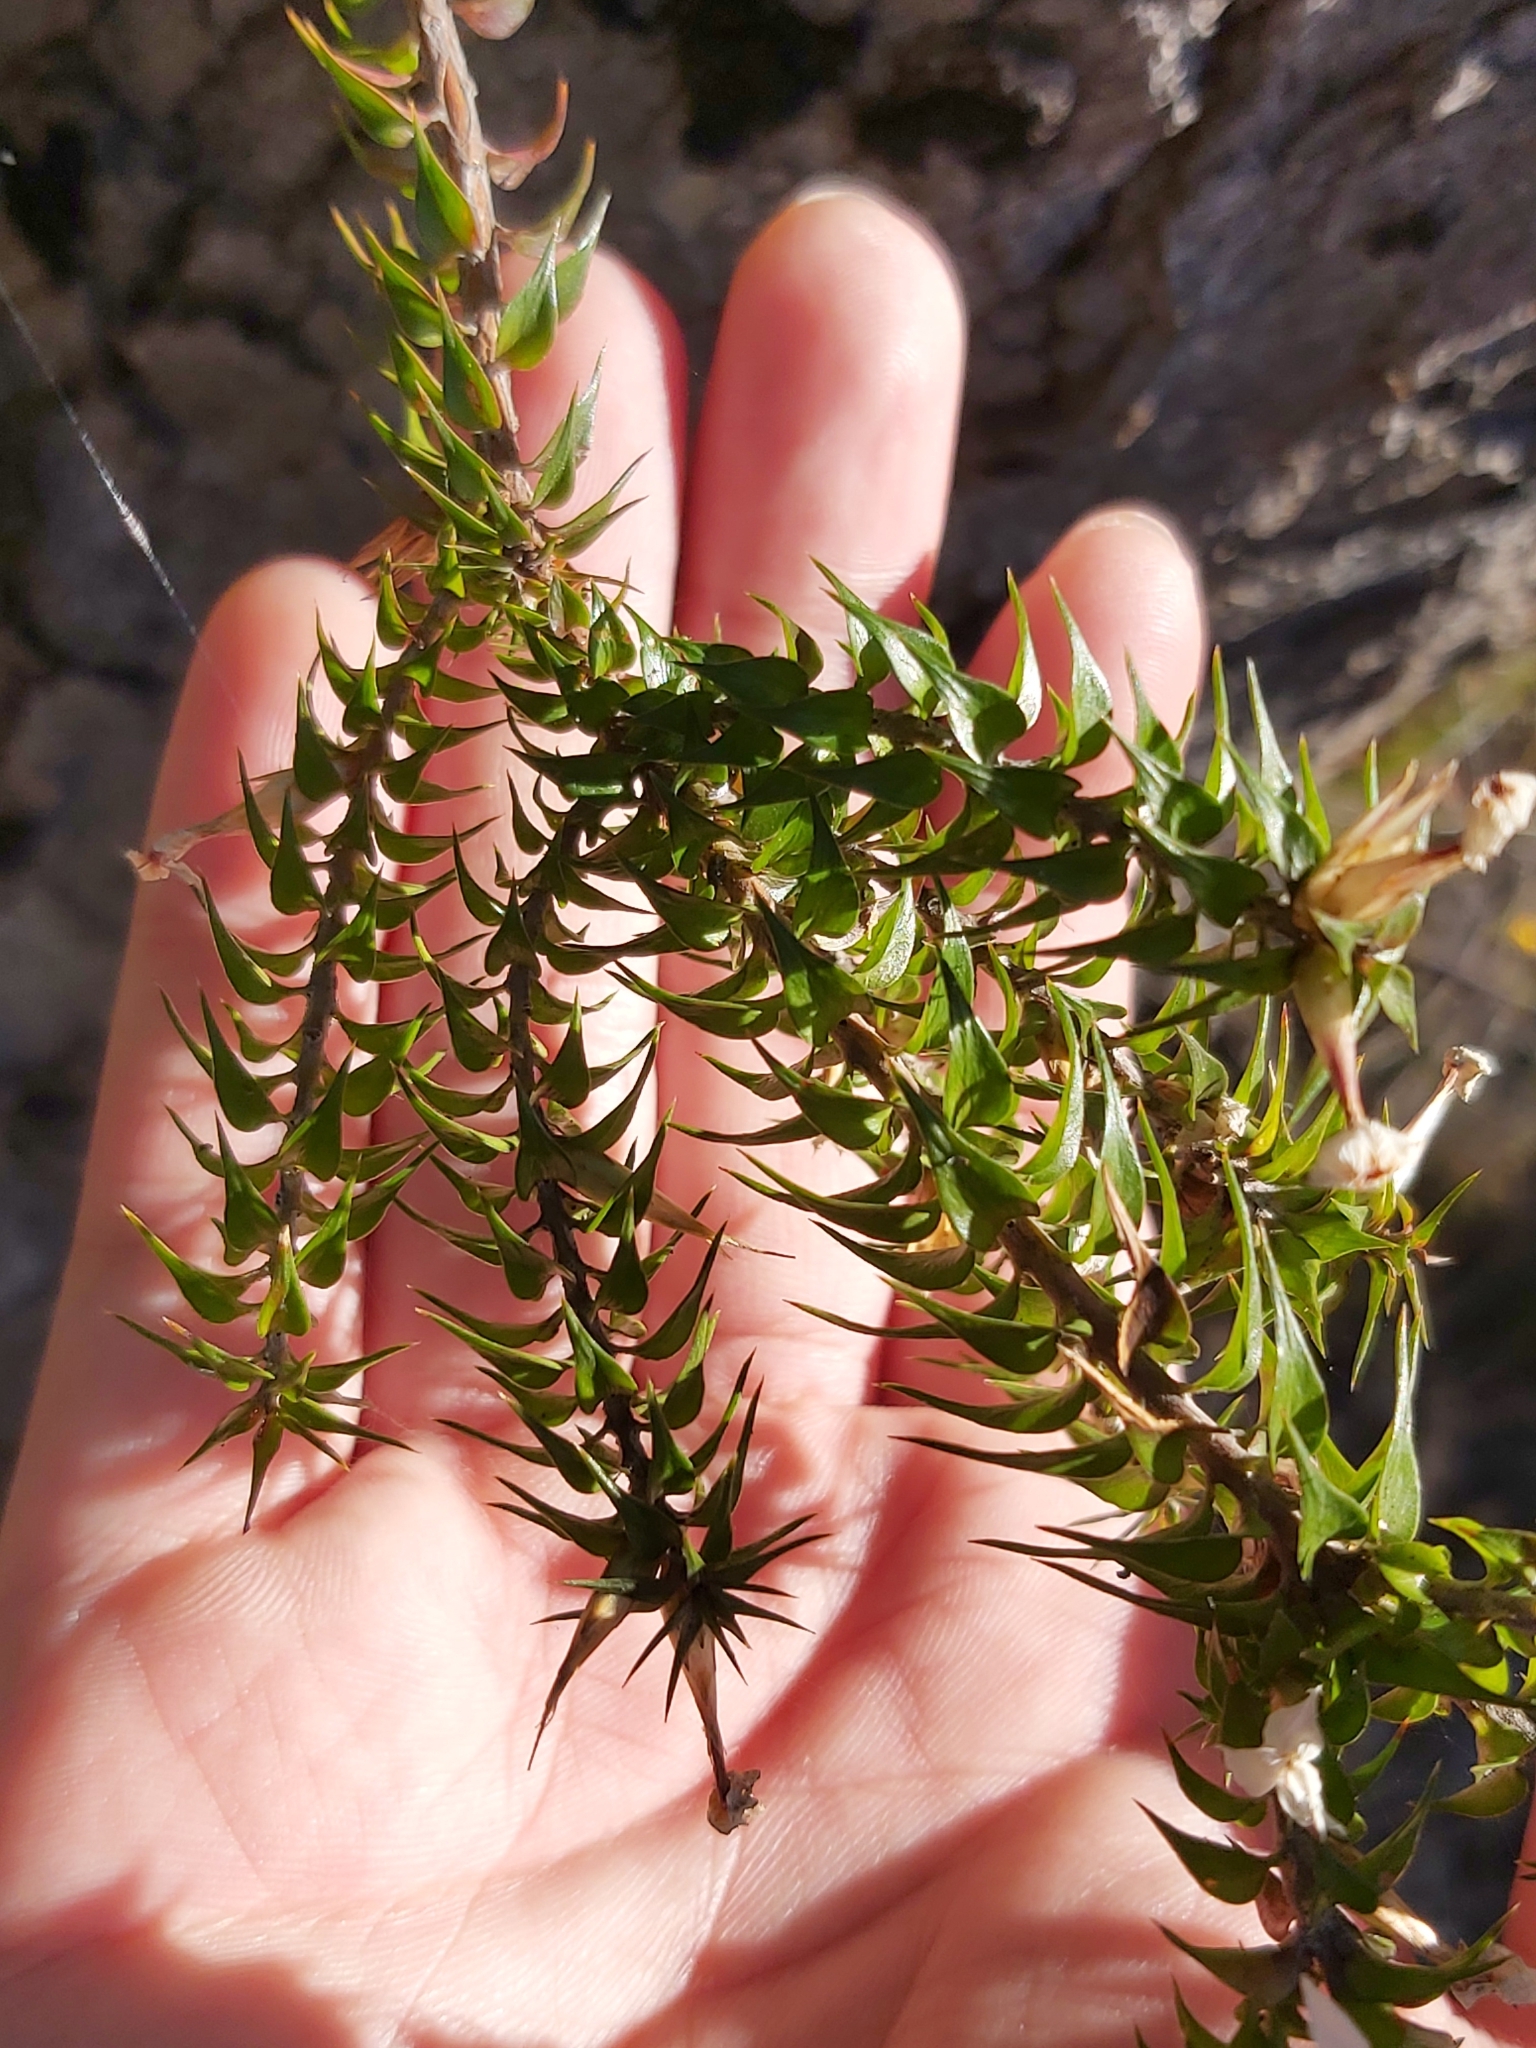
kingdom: Plantae
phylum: Tracheophyta
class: Magnoliopsida
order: Ericales
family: Ericaceae
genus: Woollsia
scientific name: Woollsia pungens
